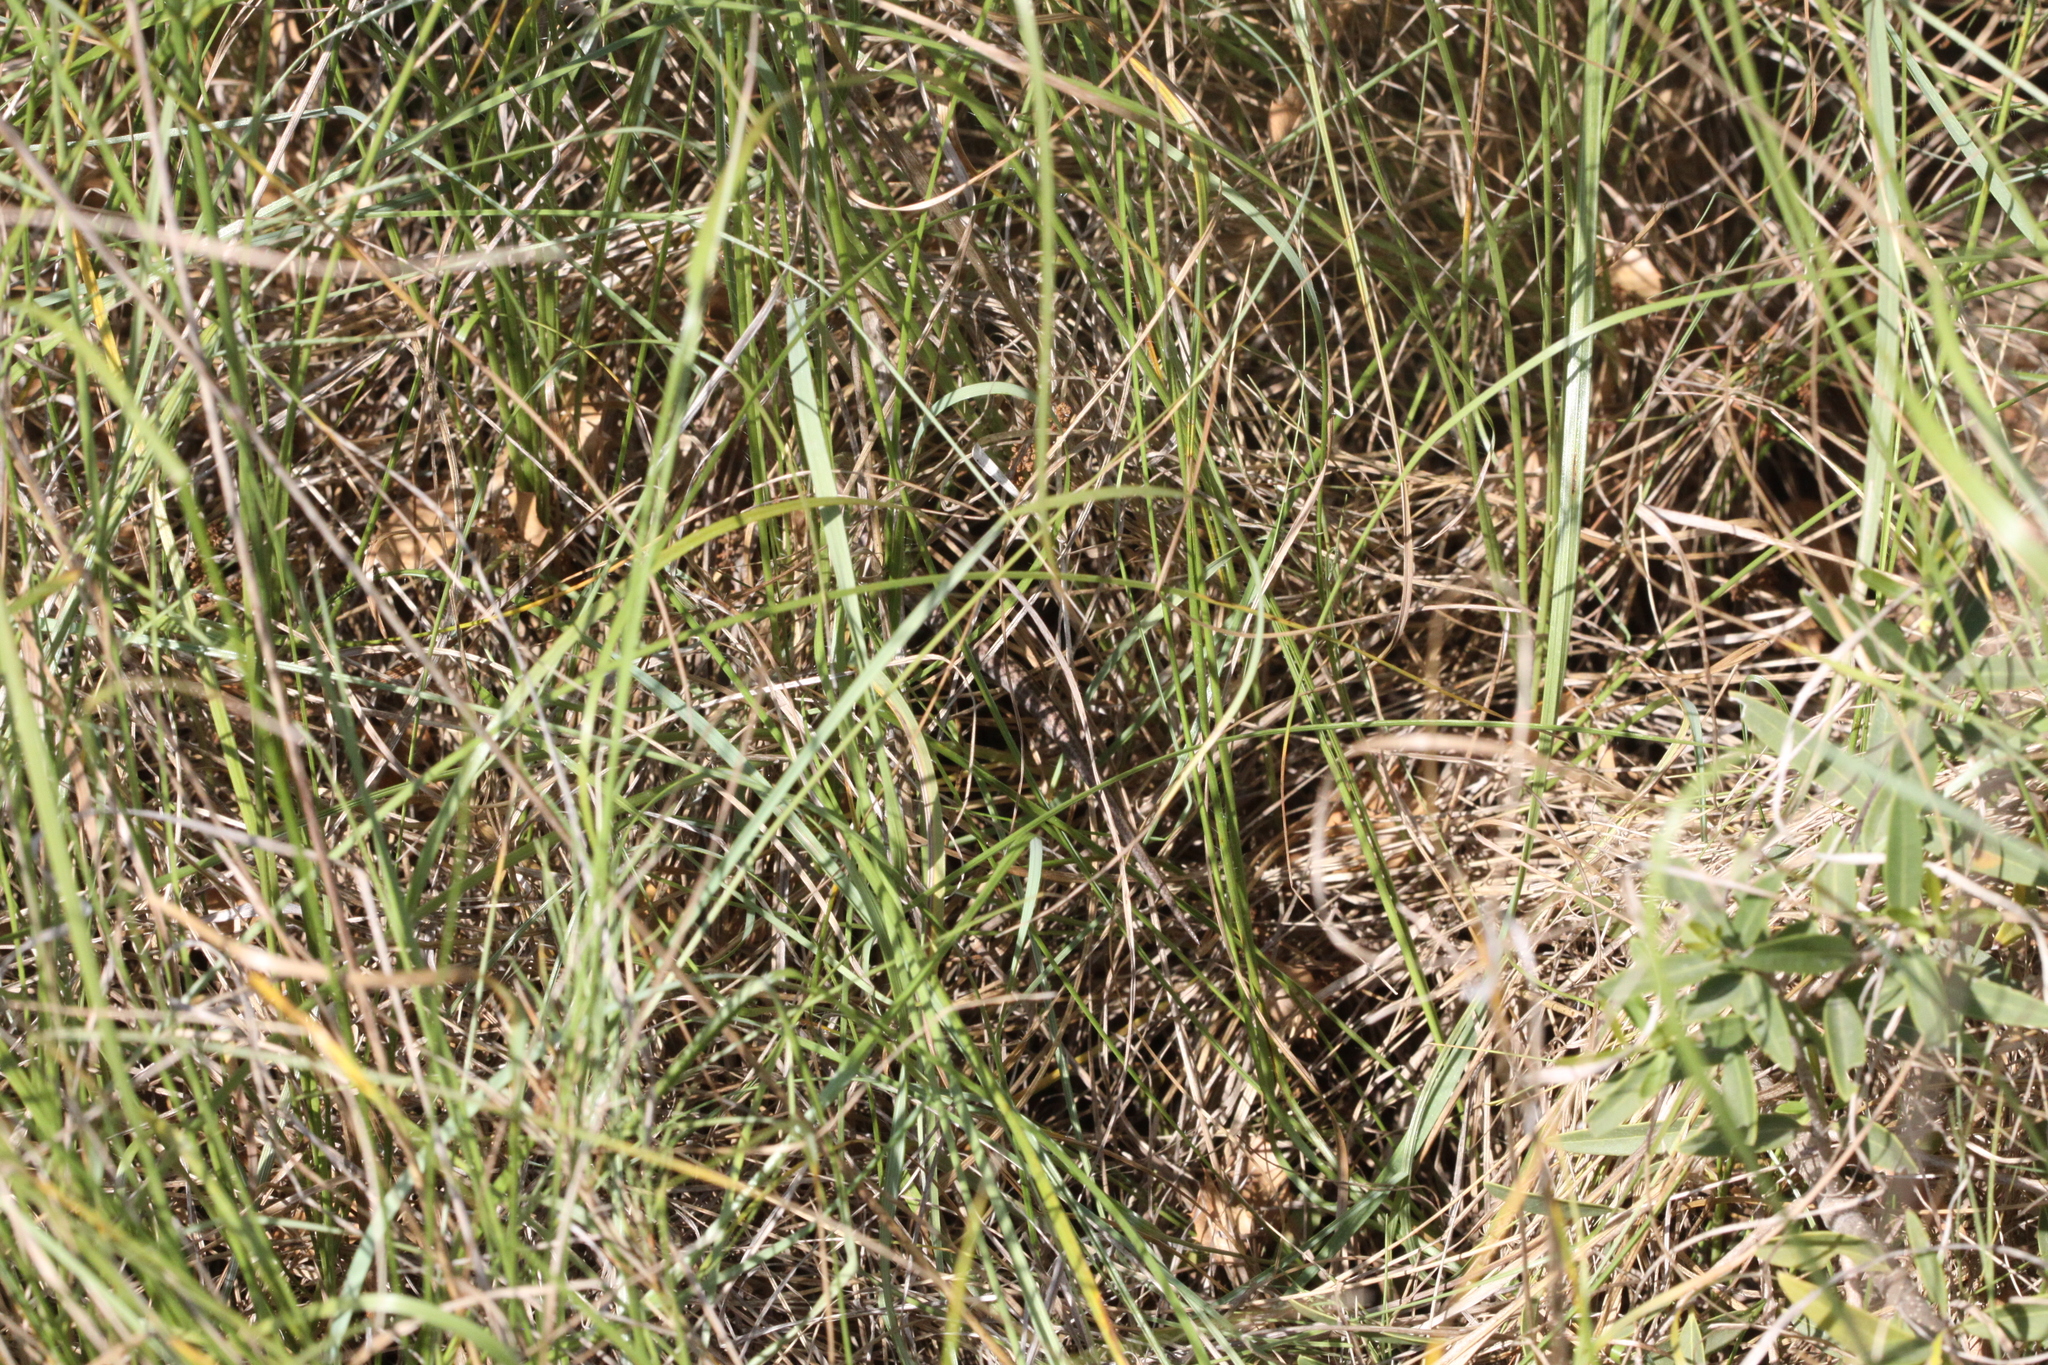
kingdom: Animalia
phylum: Chordata
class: Squamata
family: Scincidae
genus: Chalcides
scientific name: Chalcides striatus
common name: Western (or iberian) three-toed skink
